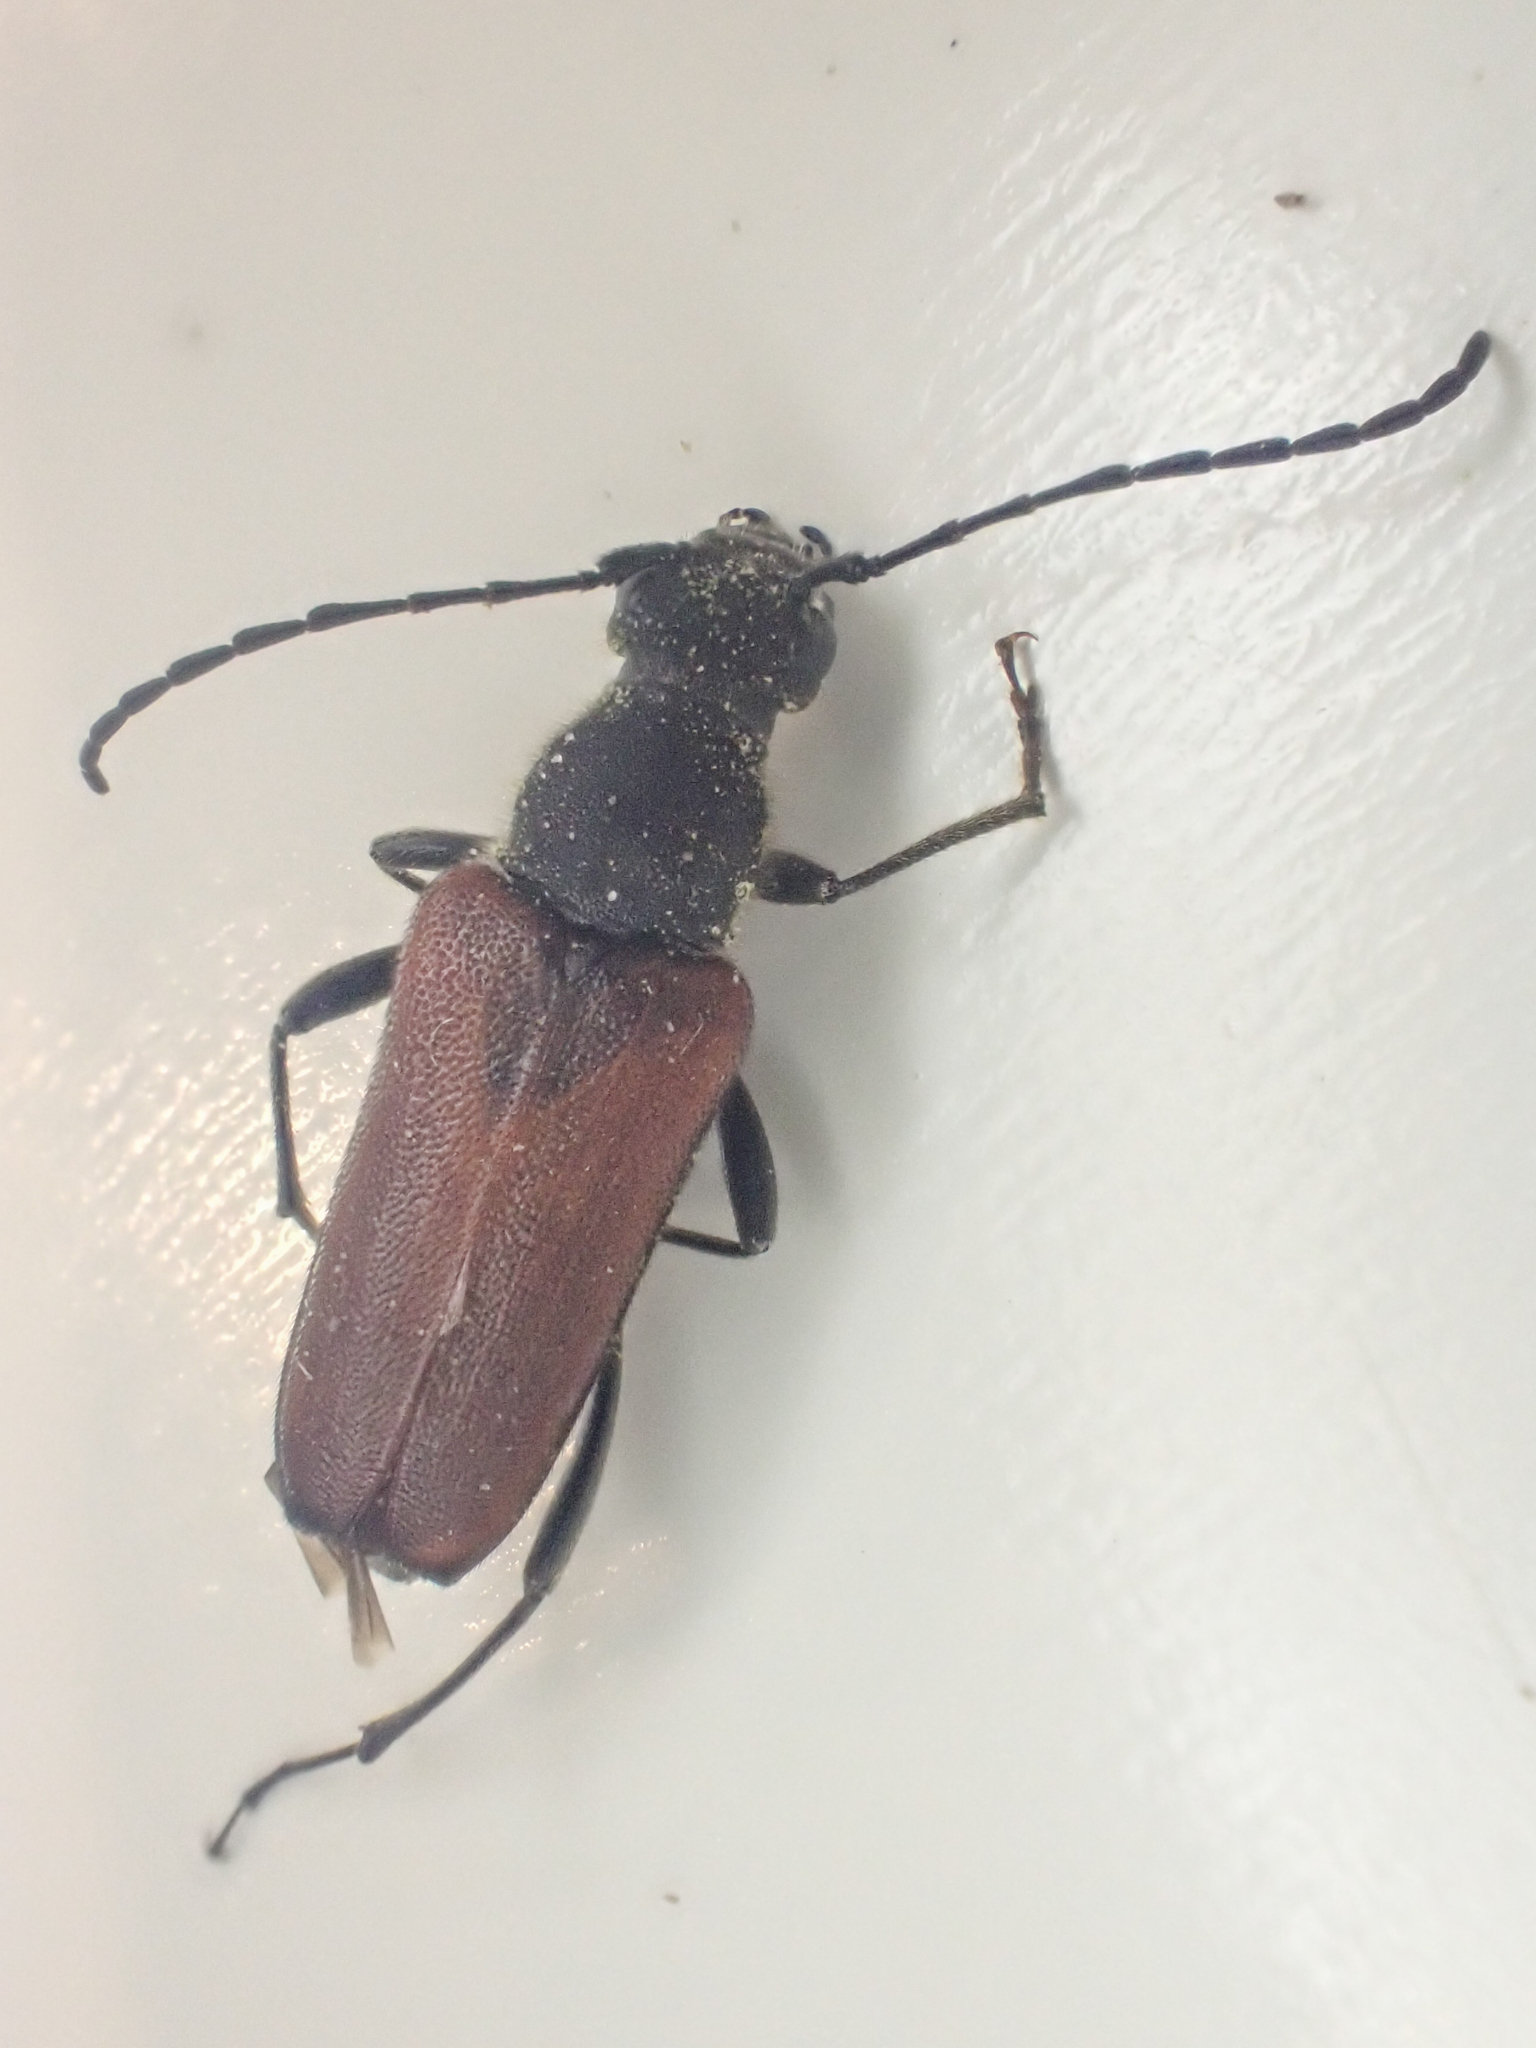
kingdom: Animalia
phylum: Arthropoda
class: Insecta
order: Coleoptera
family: Cerambycidae
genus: Anastrangalia
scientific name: Anastrangalia sanguinea
